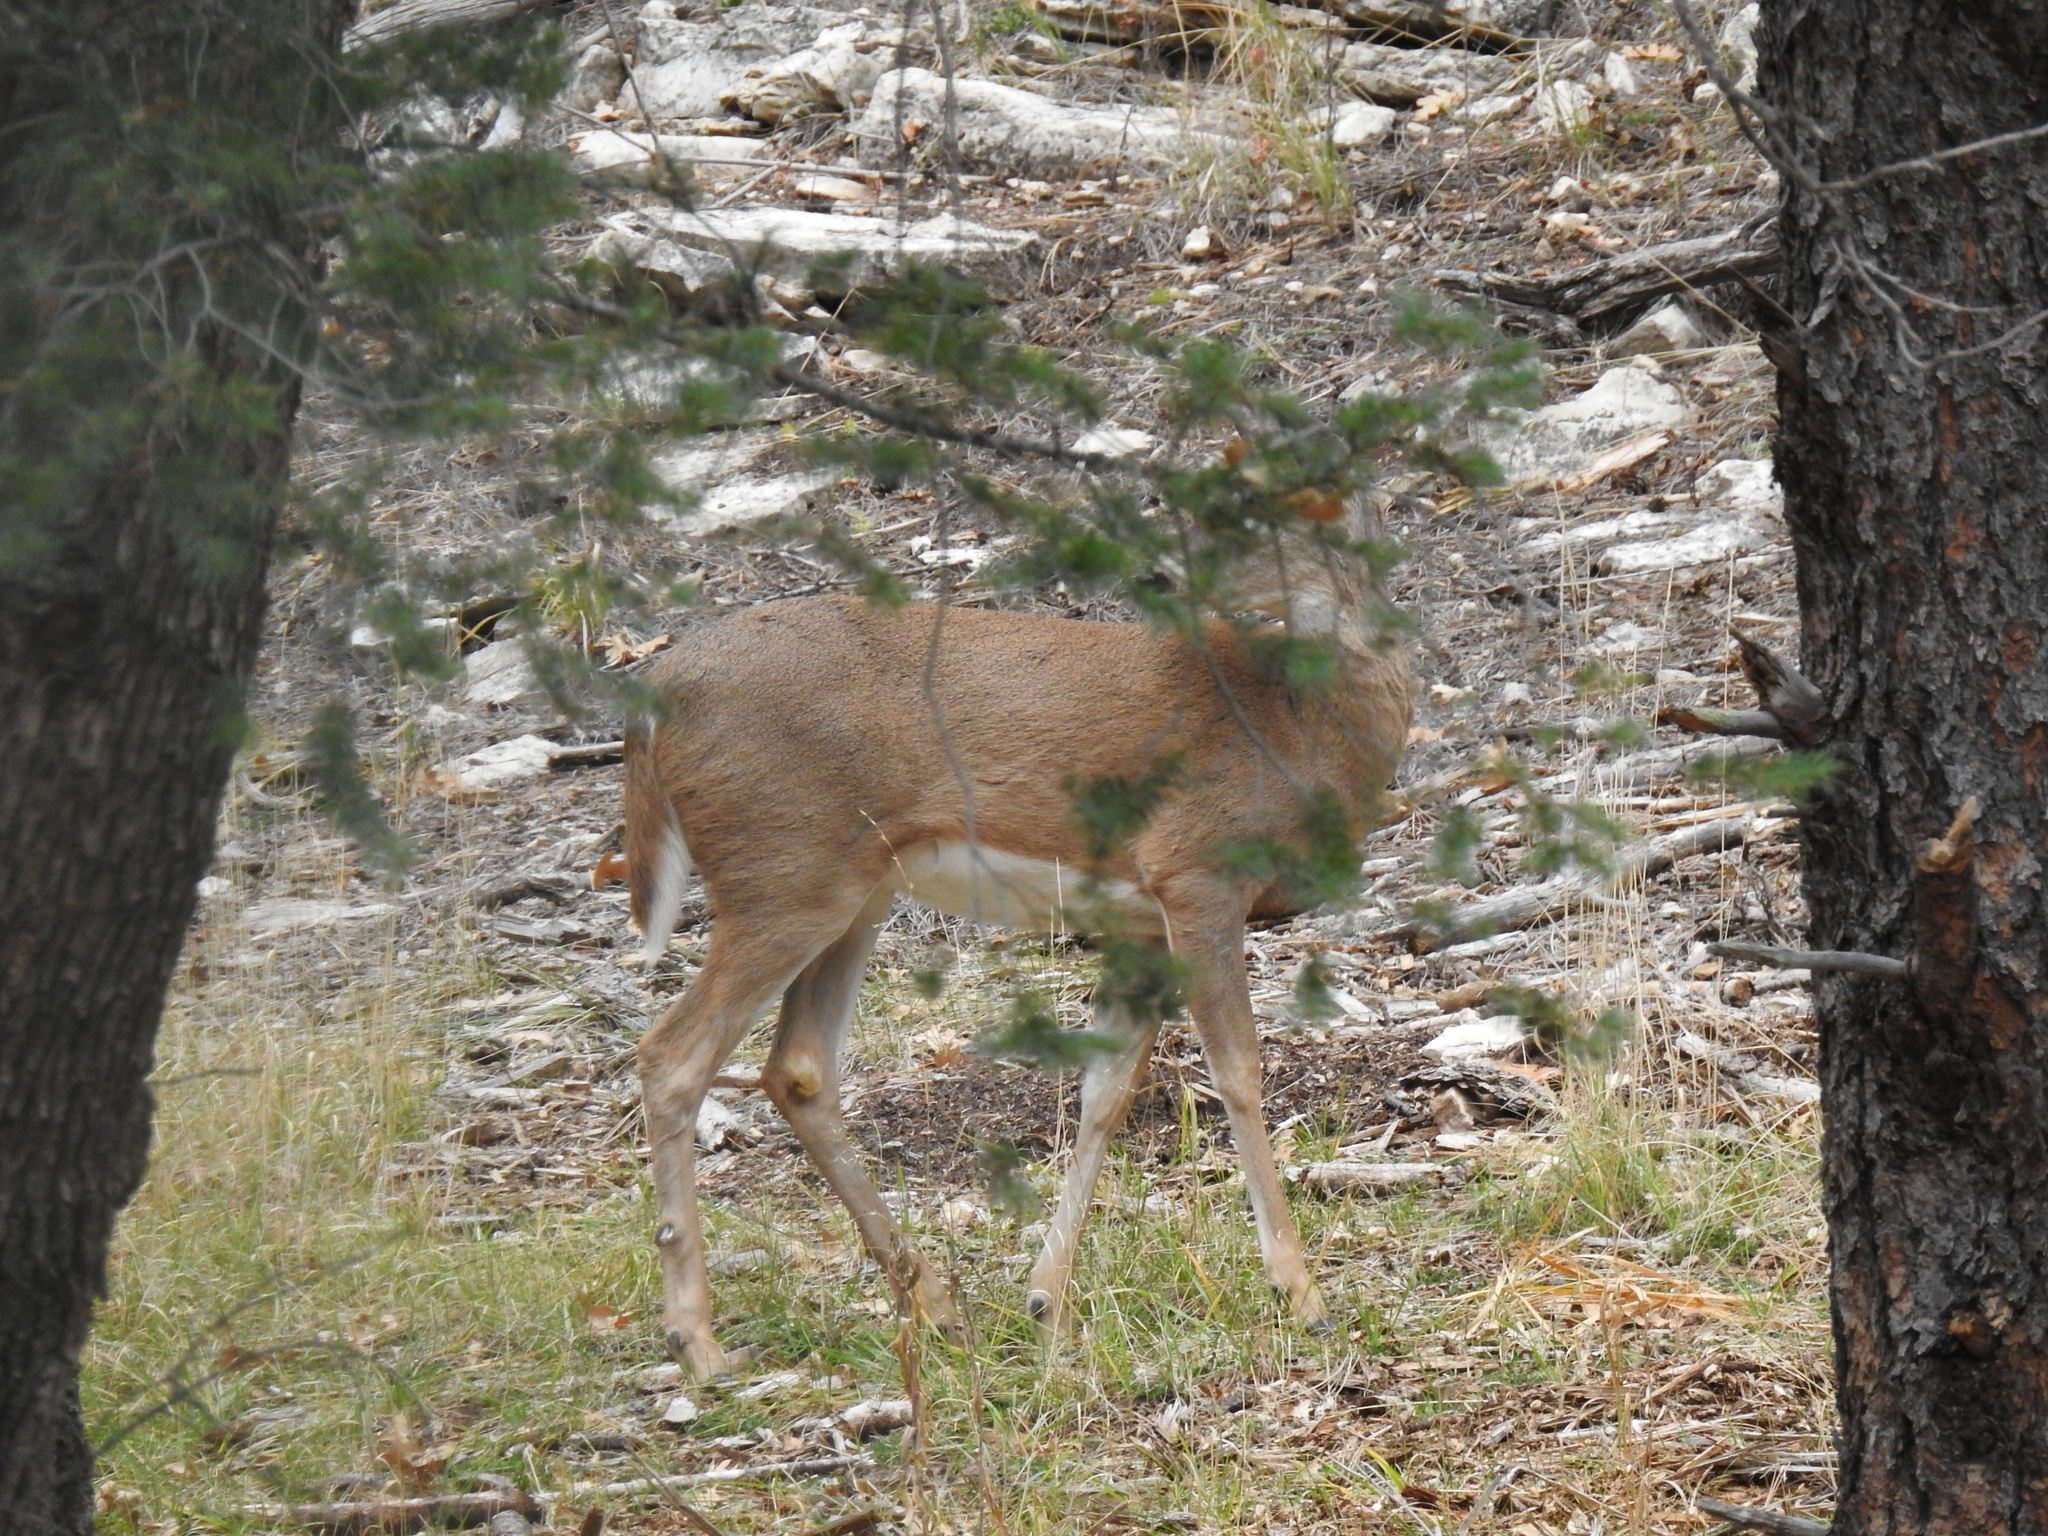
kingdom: Animalia
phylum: Chordata
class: Mammalia
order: Artiodactyla
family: Cervidae
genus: Odocoileus
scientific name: Odocoileus virginianus
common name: White-tailed deer
